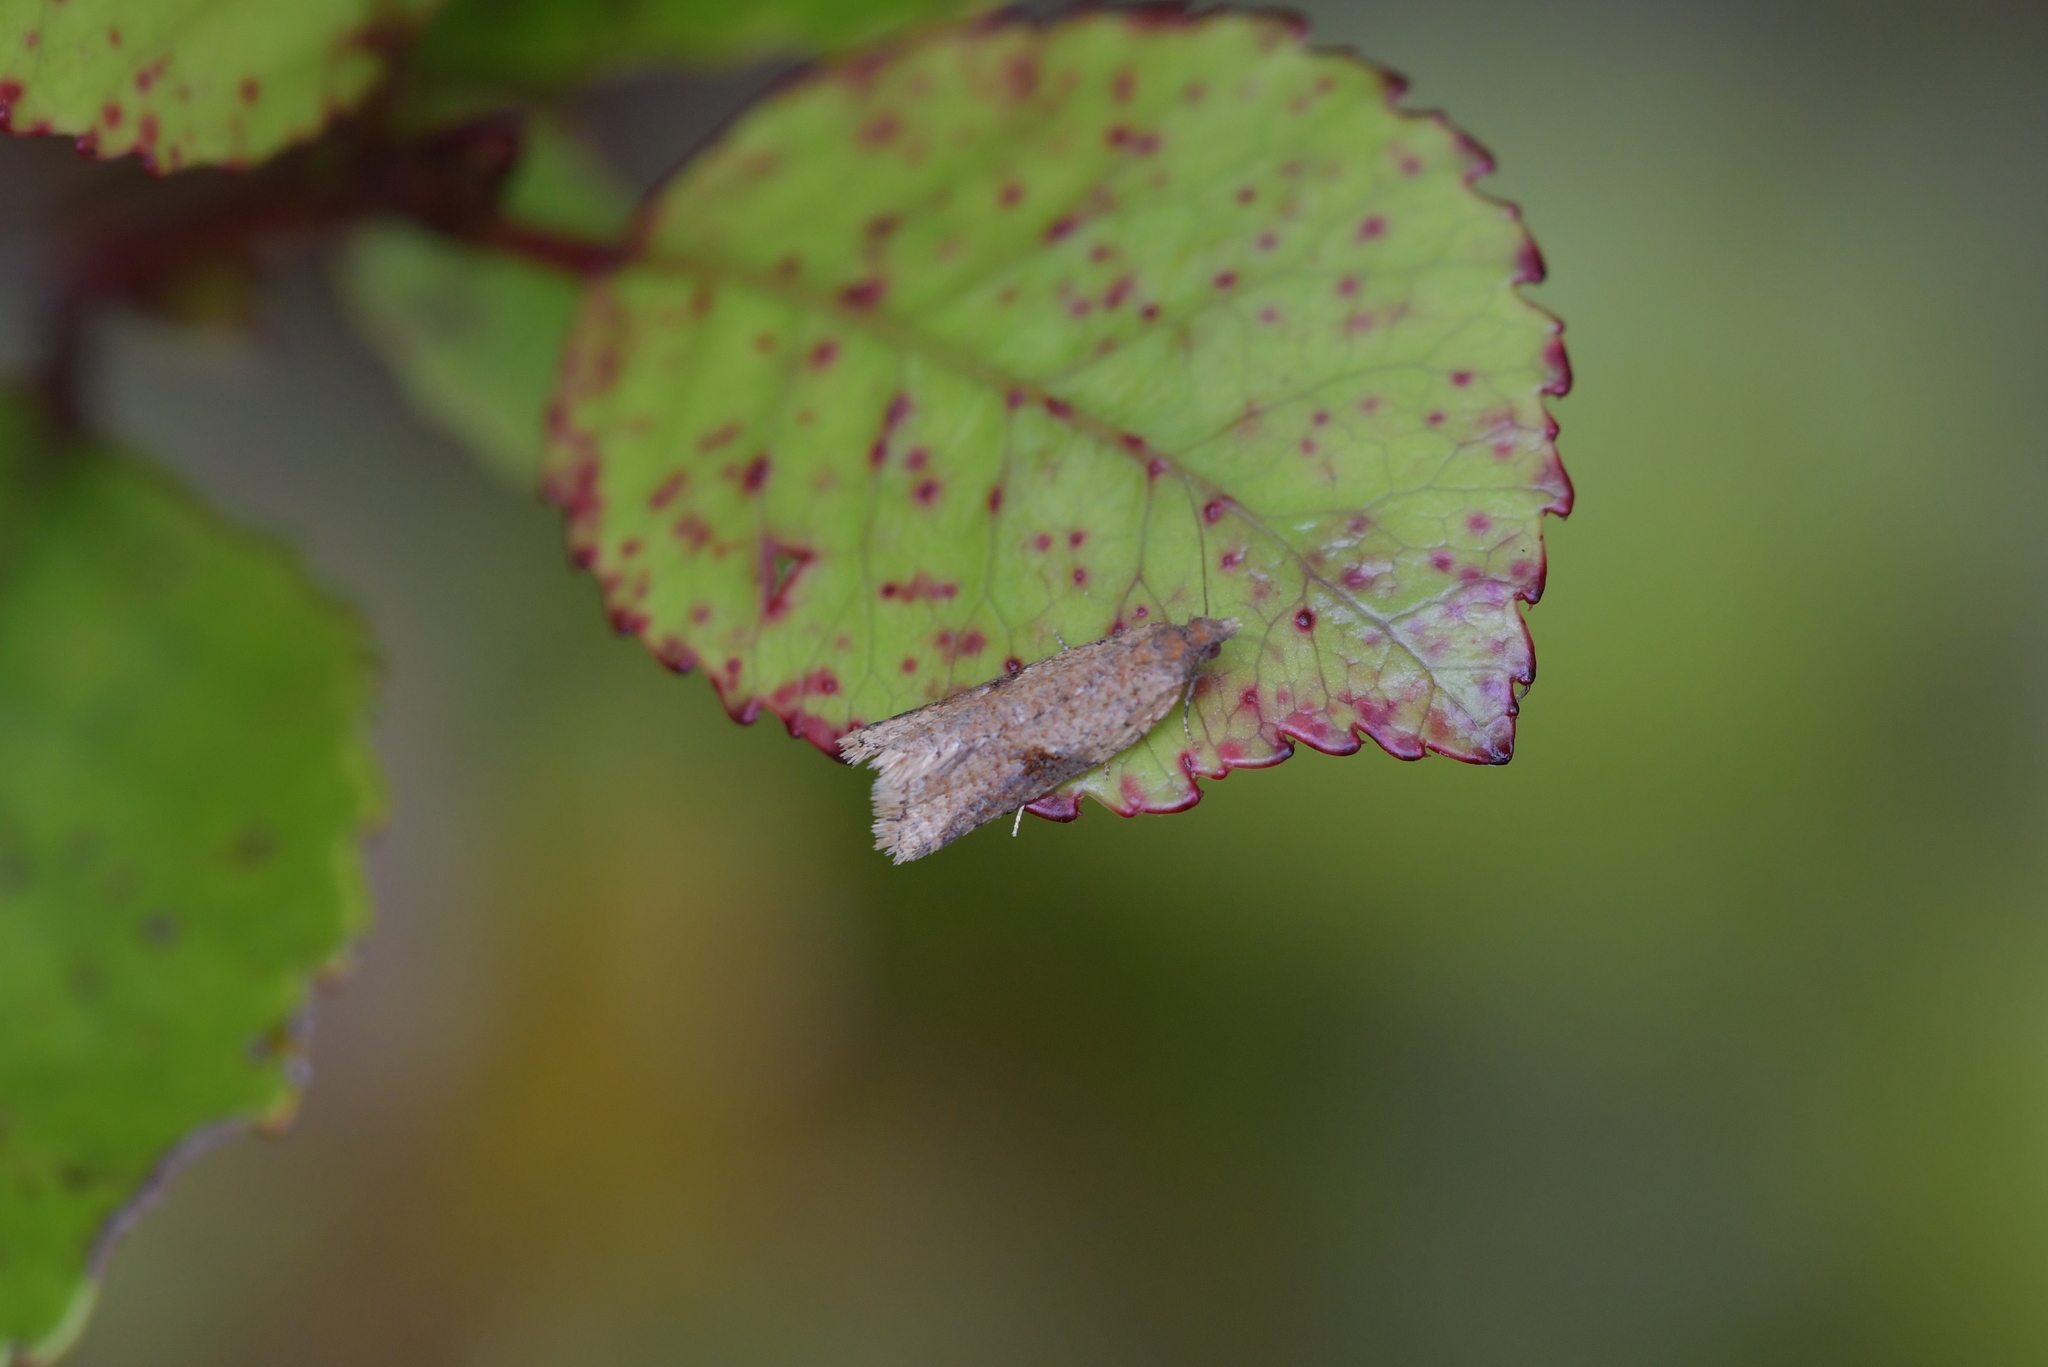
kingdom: Animalia
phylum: Arthropoda
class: Insecta
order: Lepidoptera
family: Tortricidae
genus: Capua
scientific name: Capua semiferana
